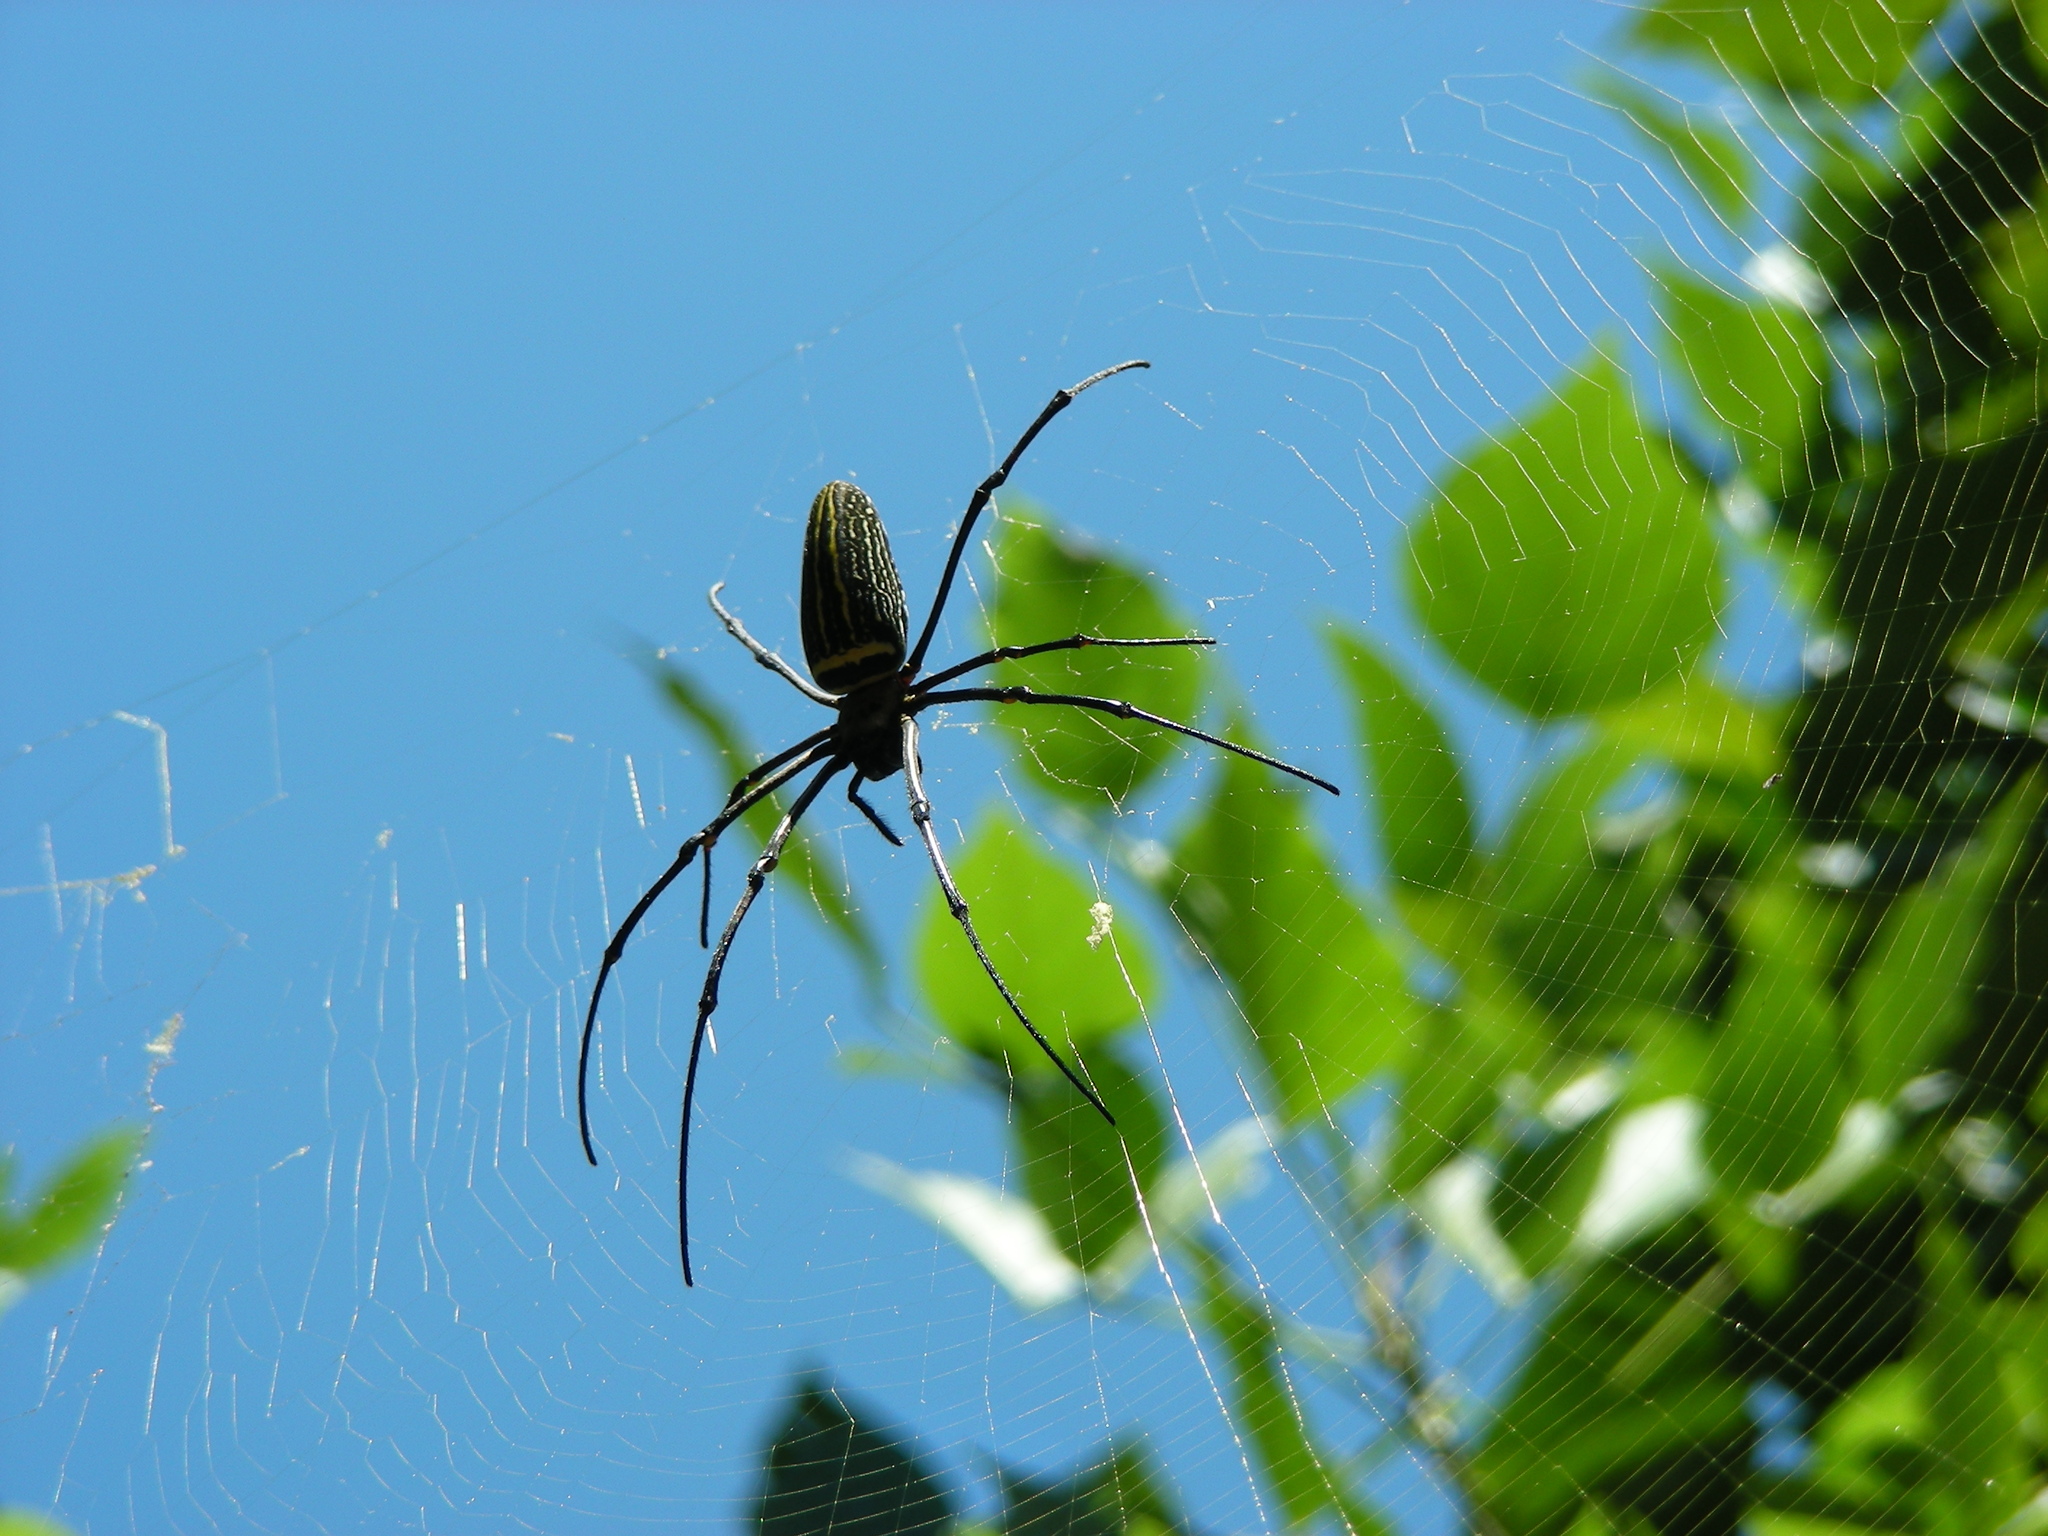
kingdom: Animalia
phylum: Arthropoda
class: Arachnida
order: Araneae
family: Araneidae
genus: Nephila
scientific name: Nephila pilipes
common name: Giant golden orb weaver
